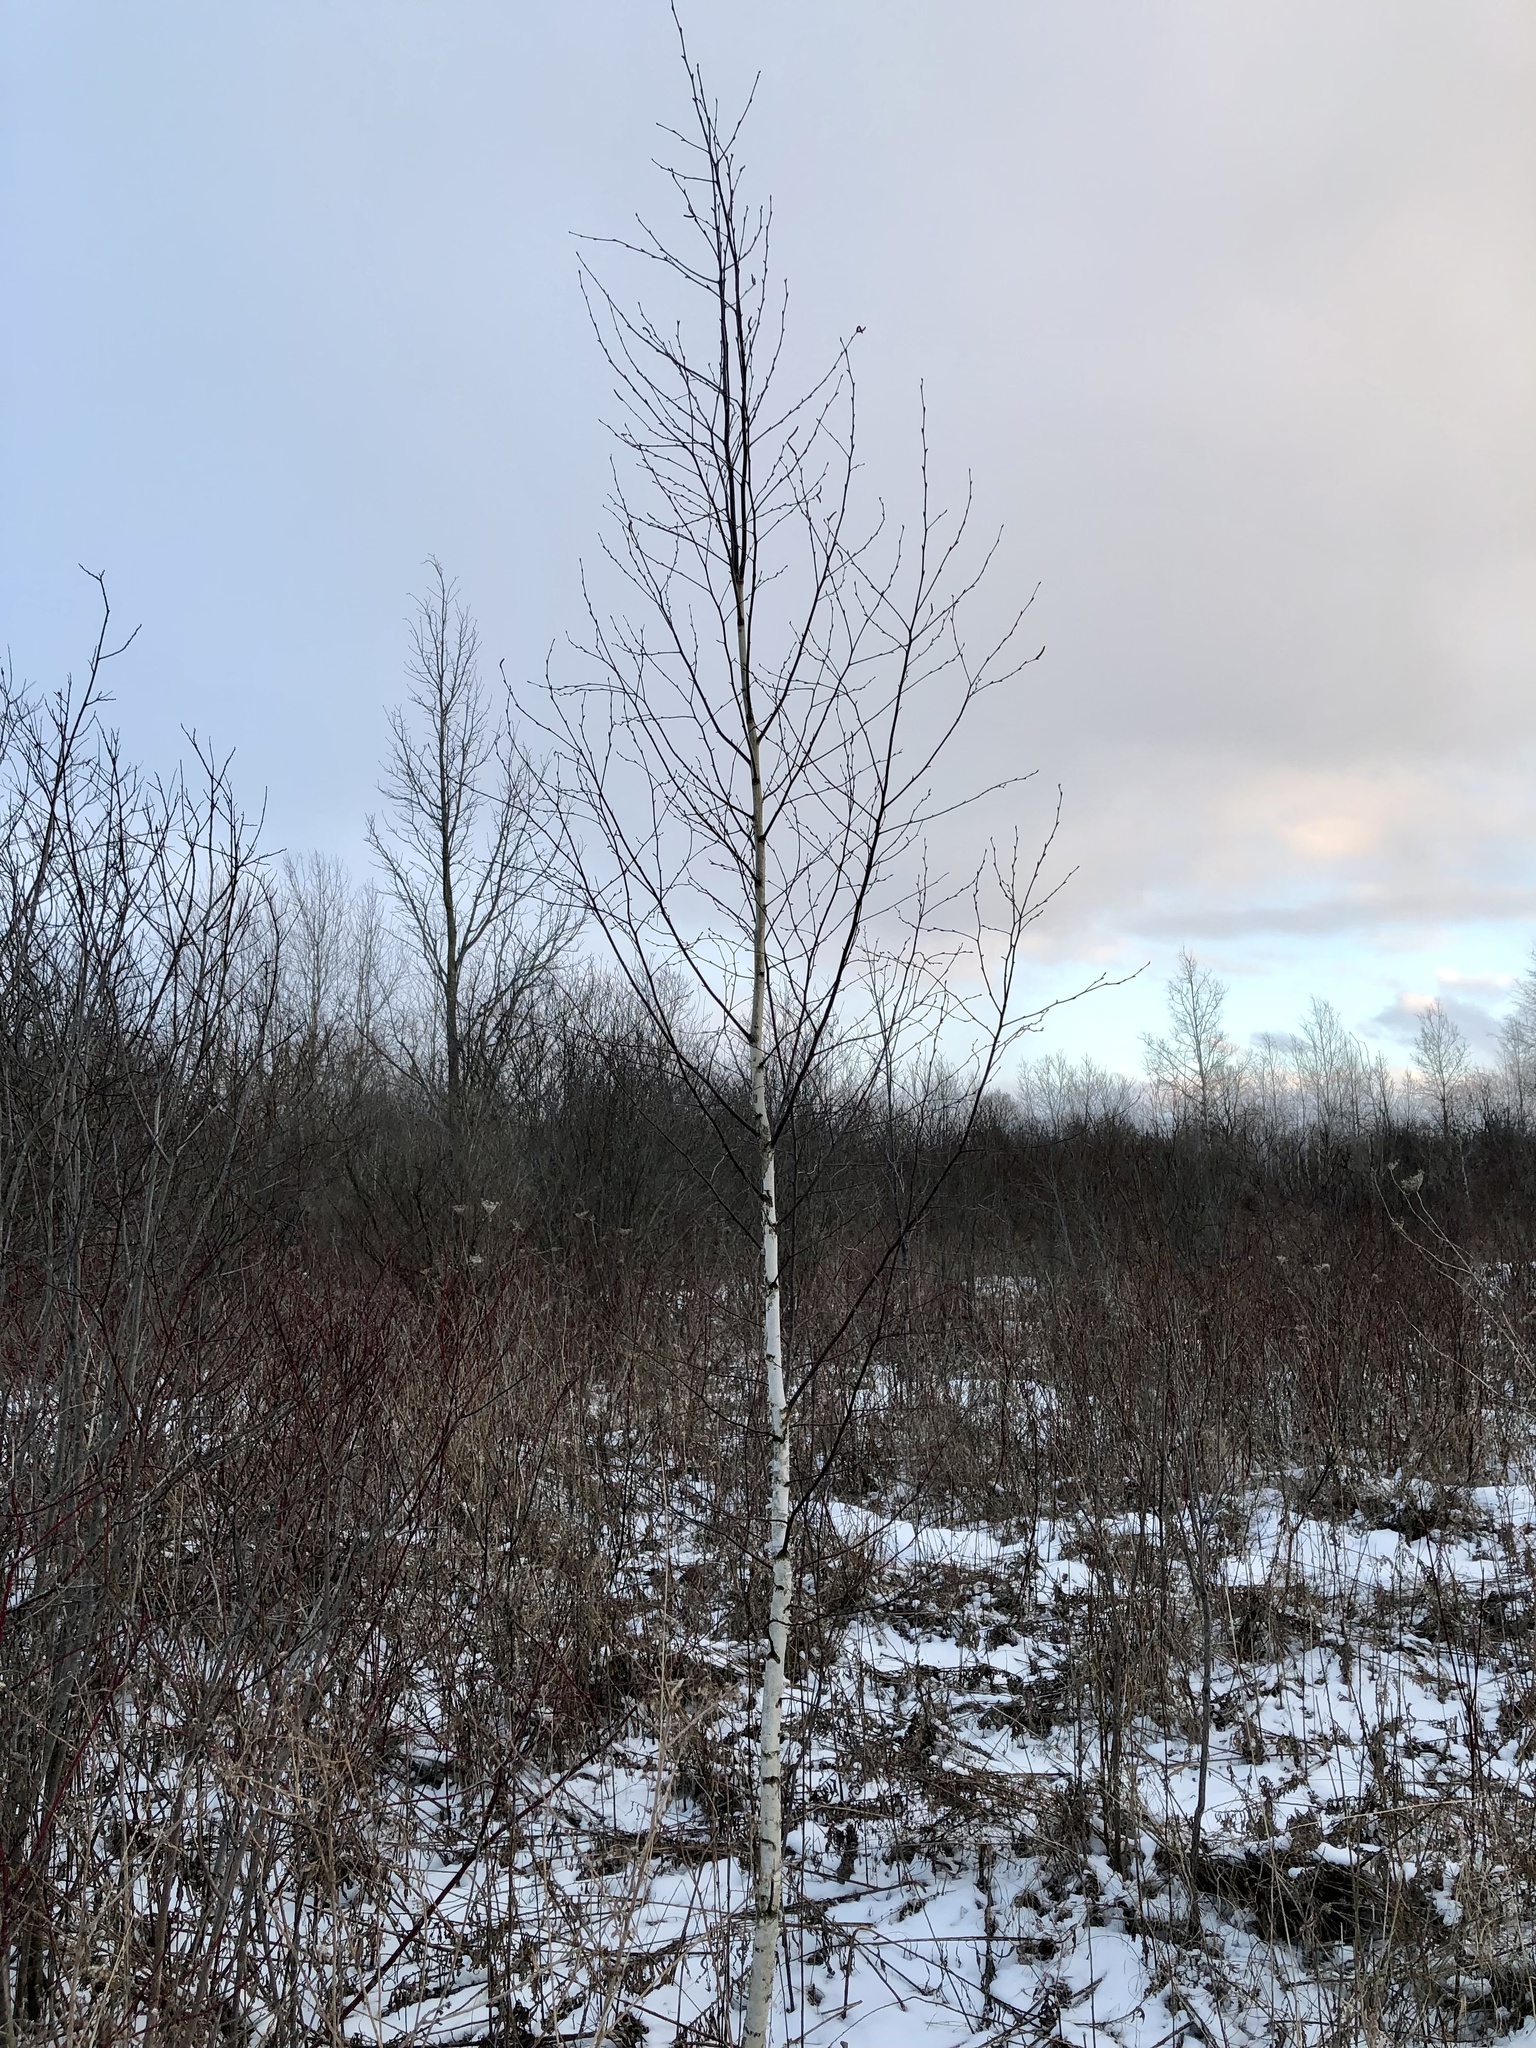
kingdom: Plantae
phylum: Tracheophyta
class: Magnoliopsida
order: Fagales
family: Betulaceae
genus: Betula
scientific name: Betula papyrifera
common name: Paper birch
